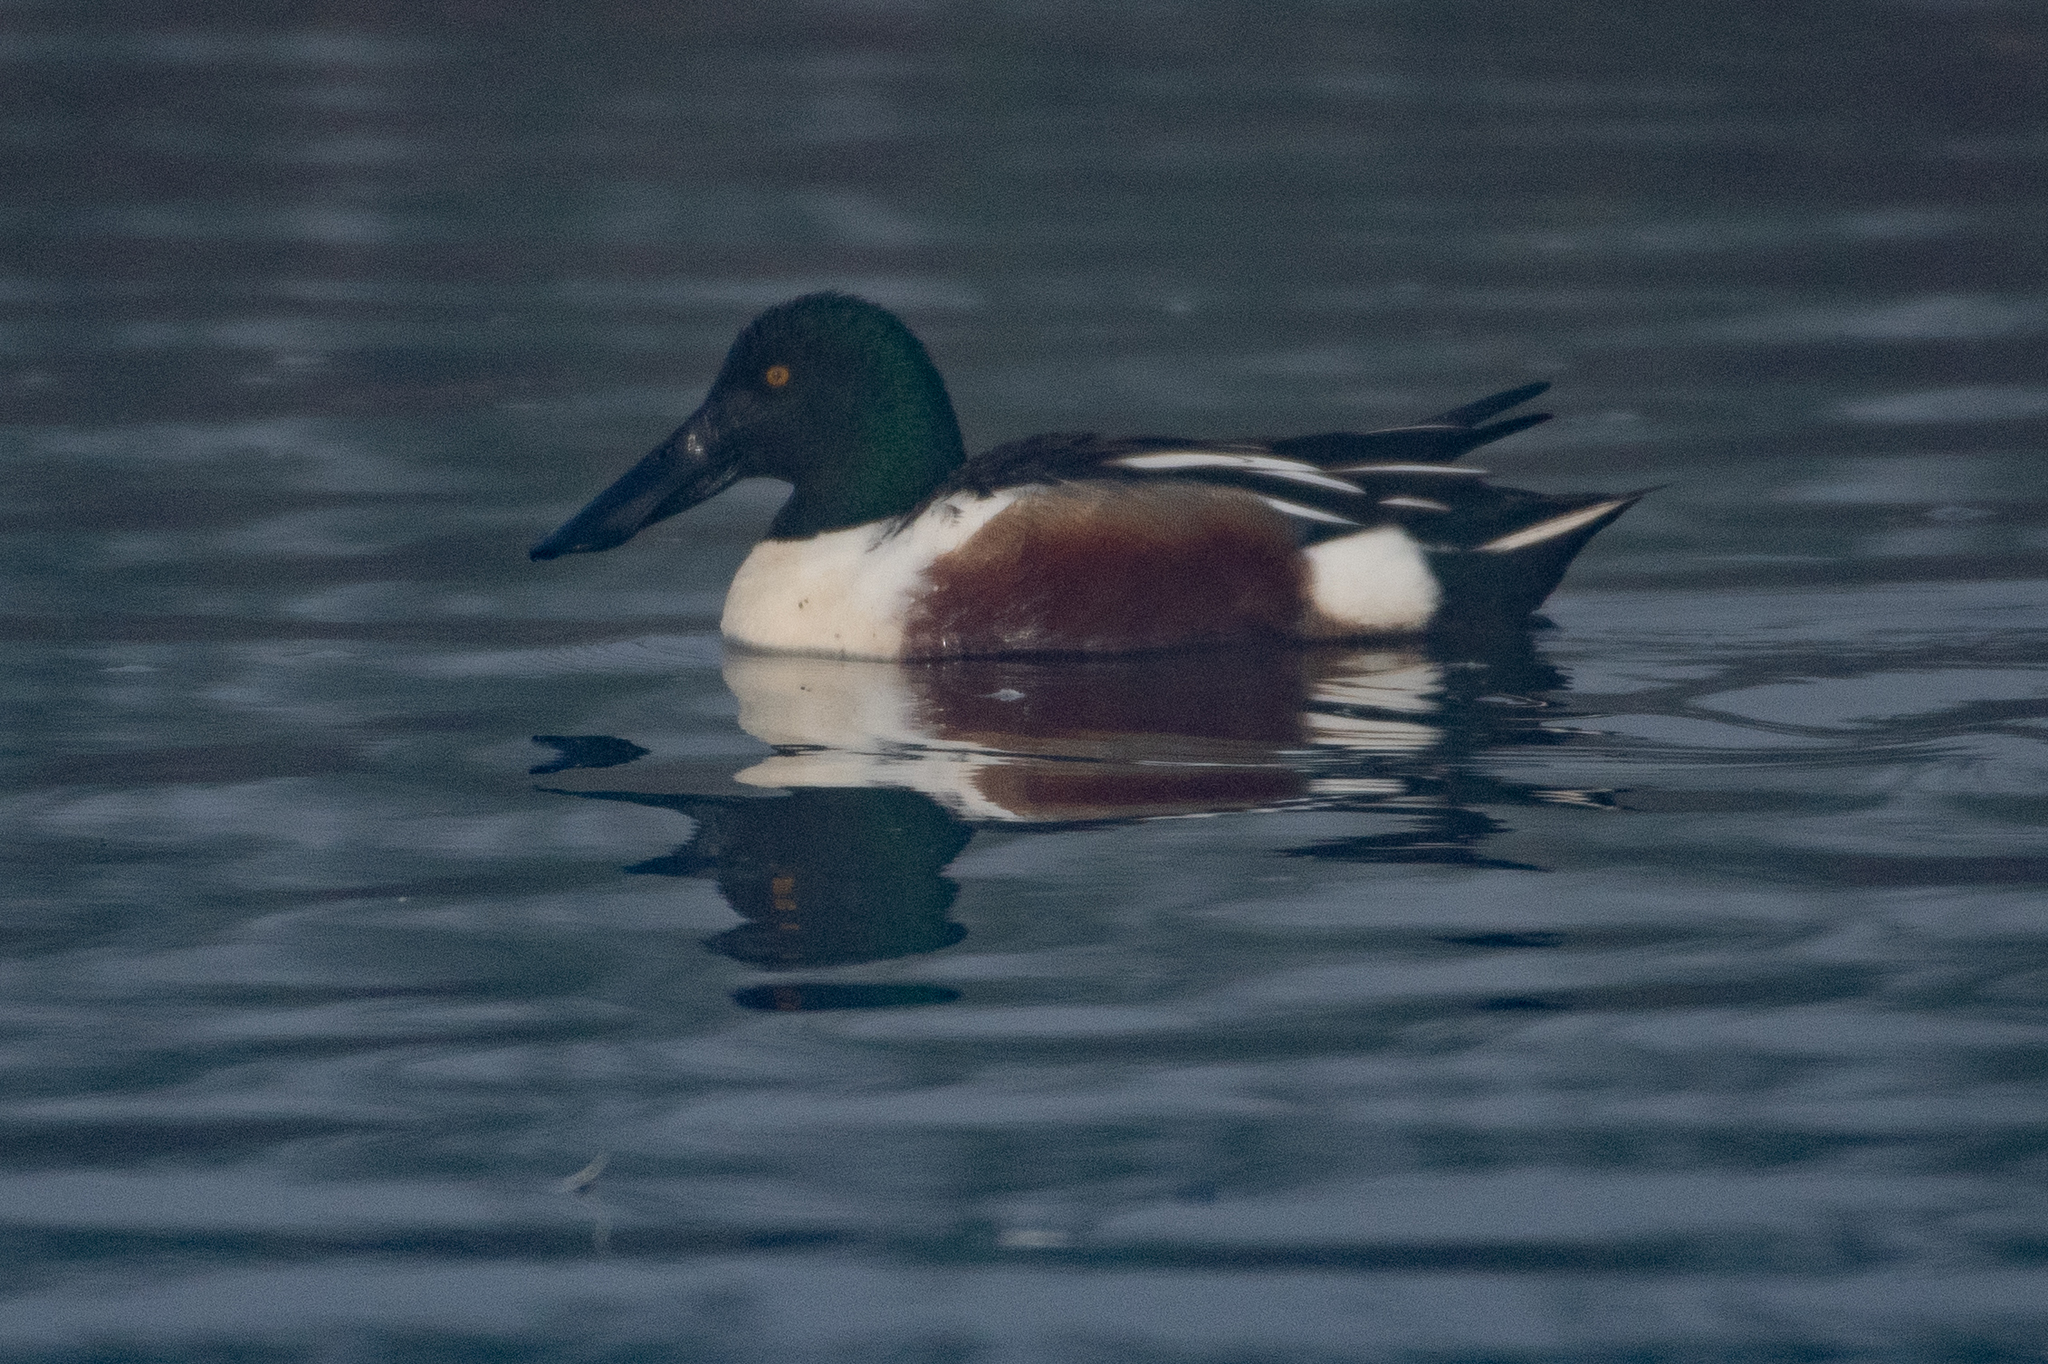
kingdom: Animalia
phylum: Chordata
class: Aves
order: Anseriformes
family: Anatidae
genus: Spatula
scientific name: Spatula clypeata
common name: Northern shoveler
